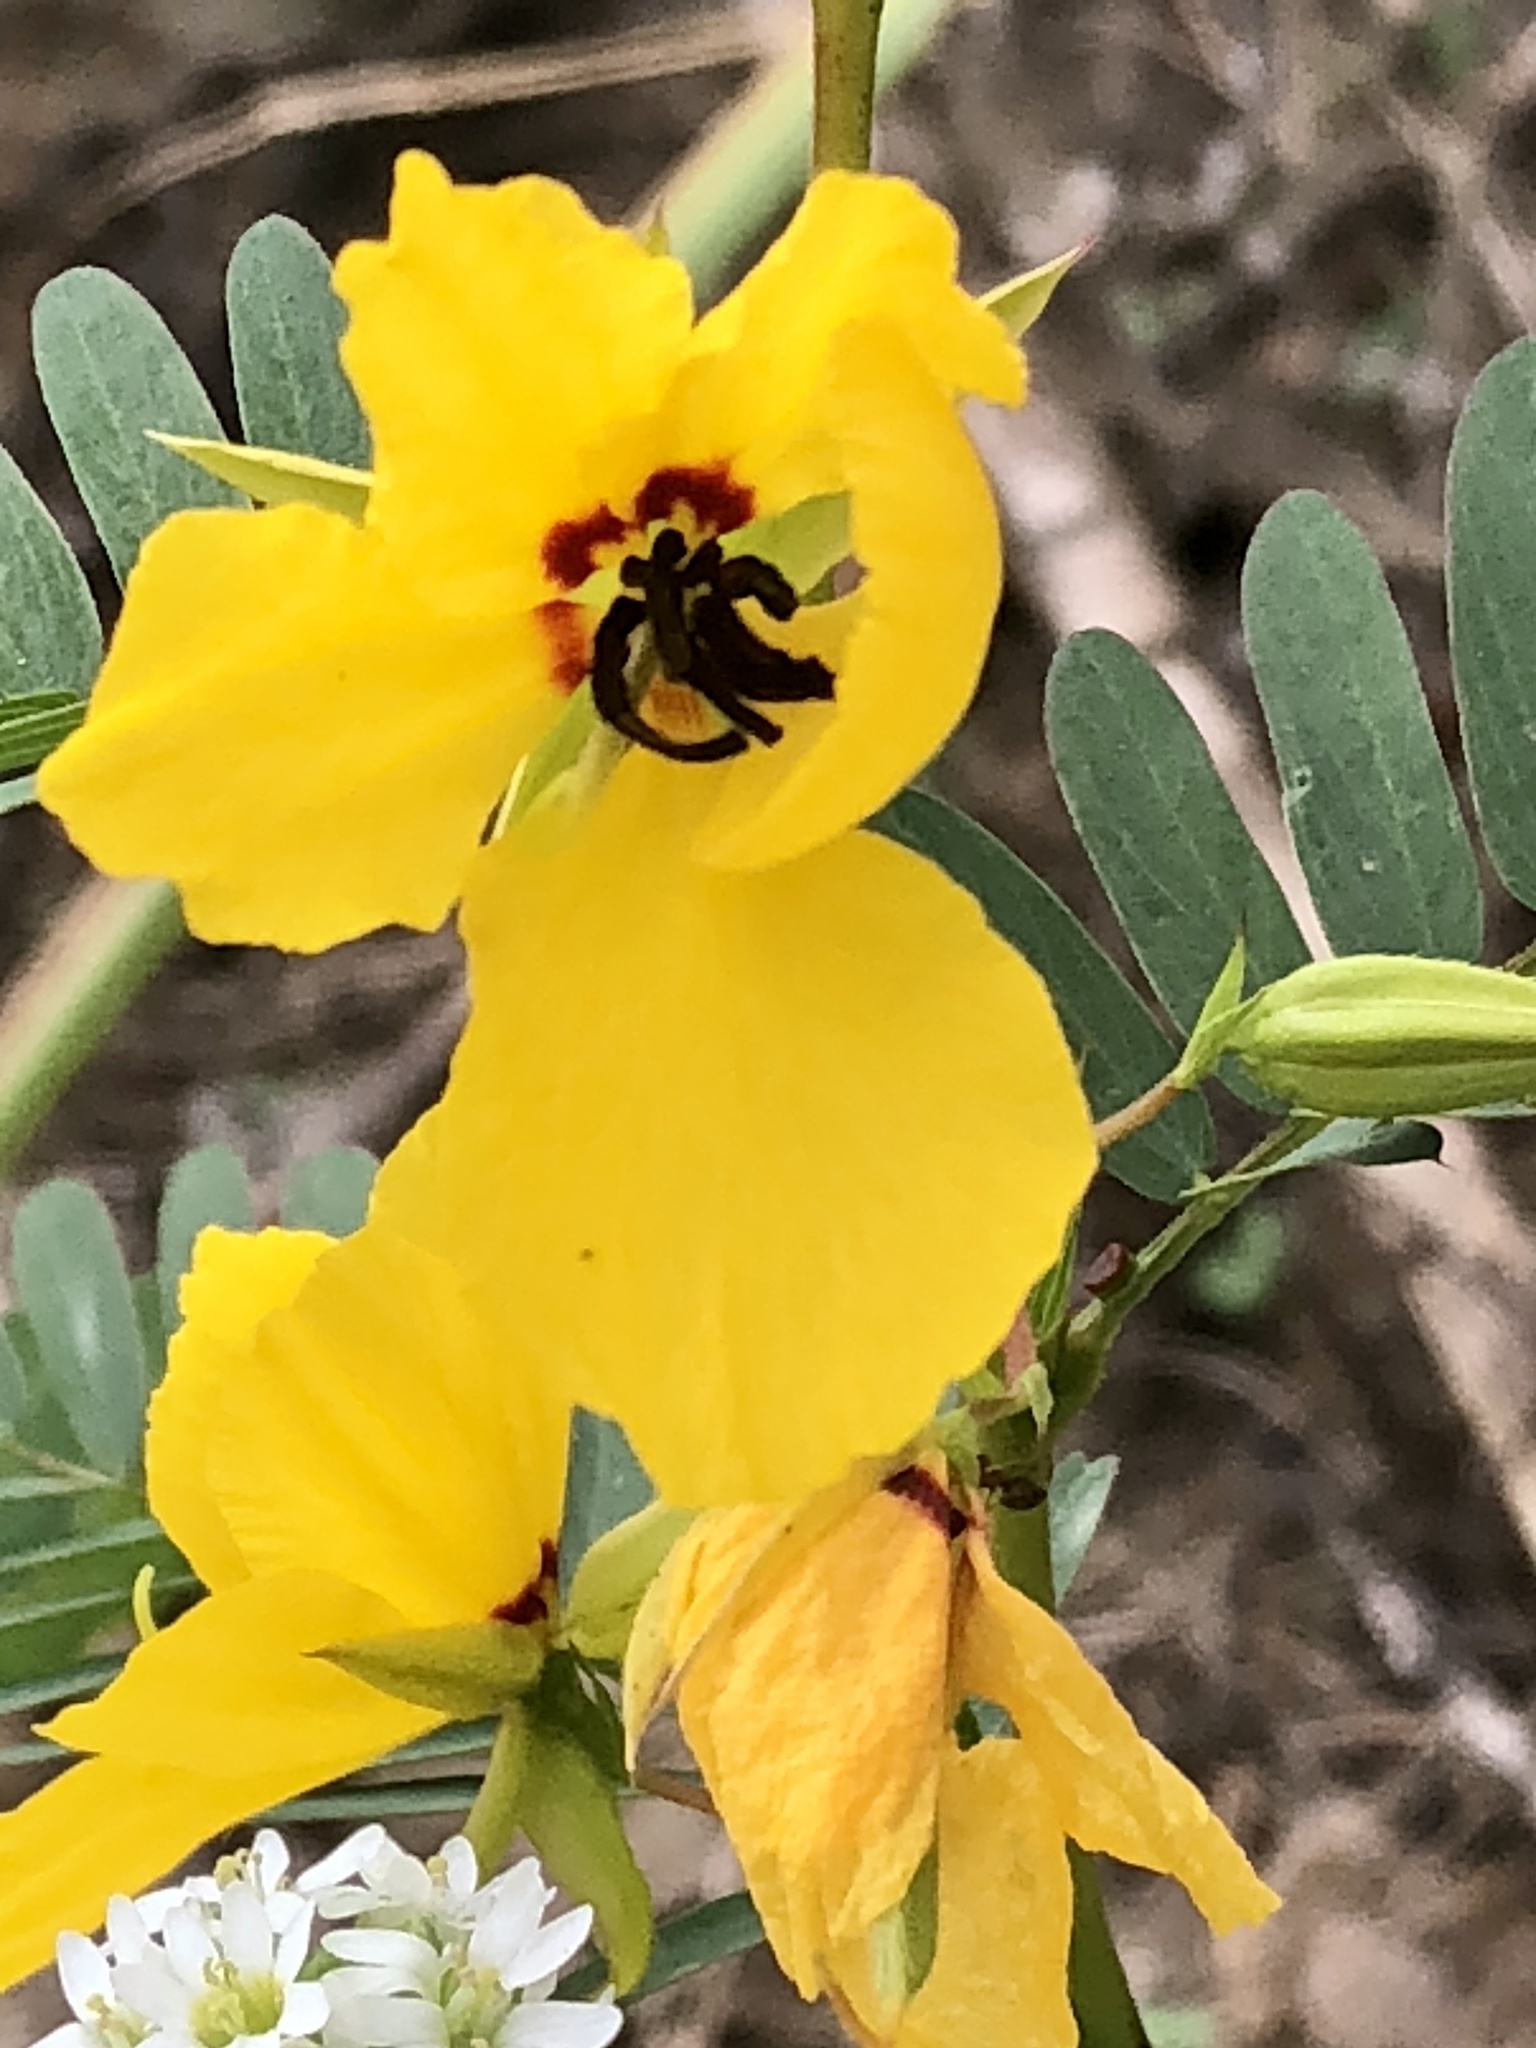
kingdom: Plantae
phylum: Tracheophyta
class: Magnoliopsida
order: Fabales
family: Fabaceae
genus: Chamaecrista
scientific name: Chamaecrista fasciculata
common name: Golden cassia
